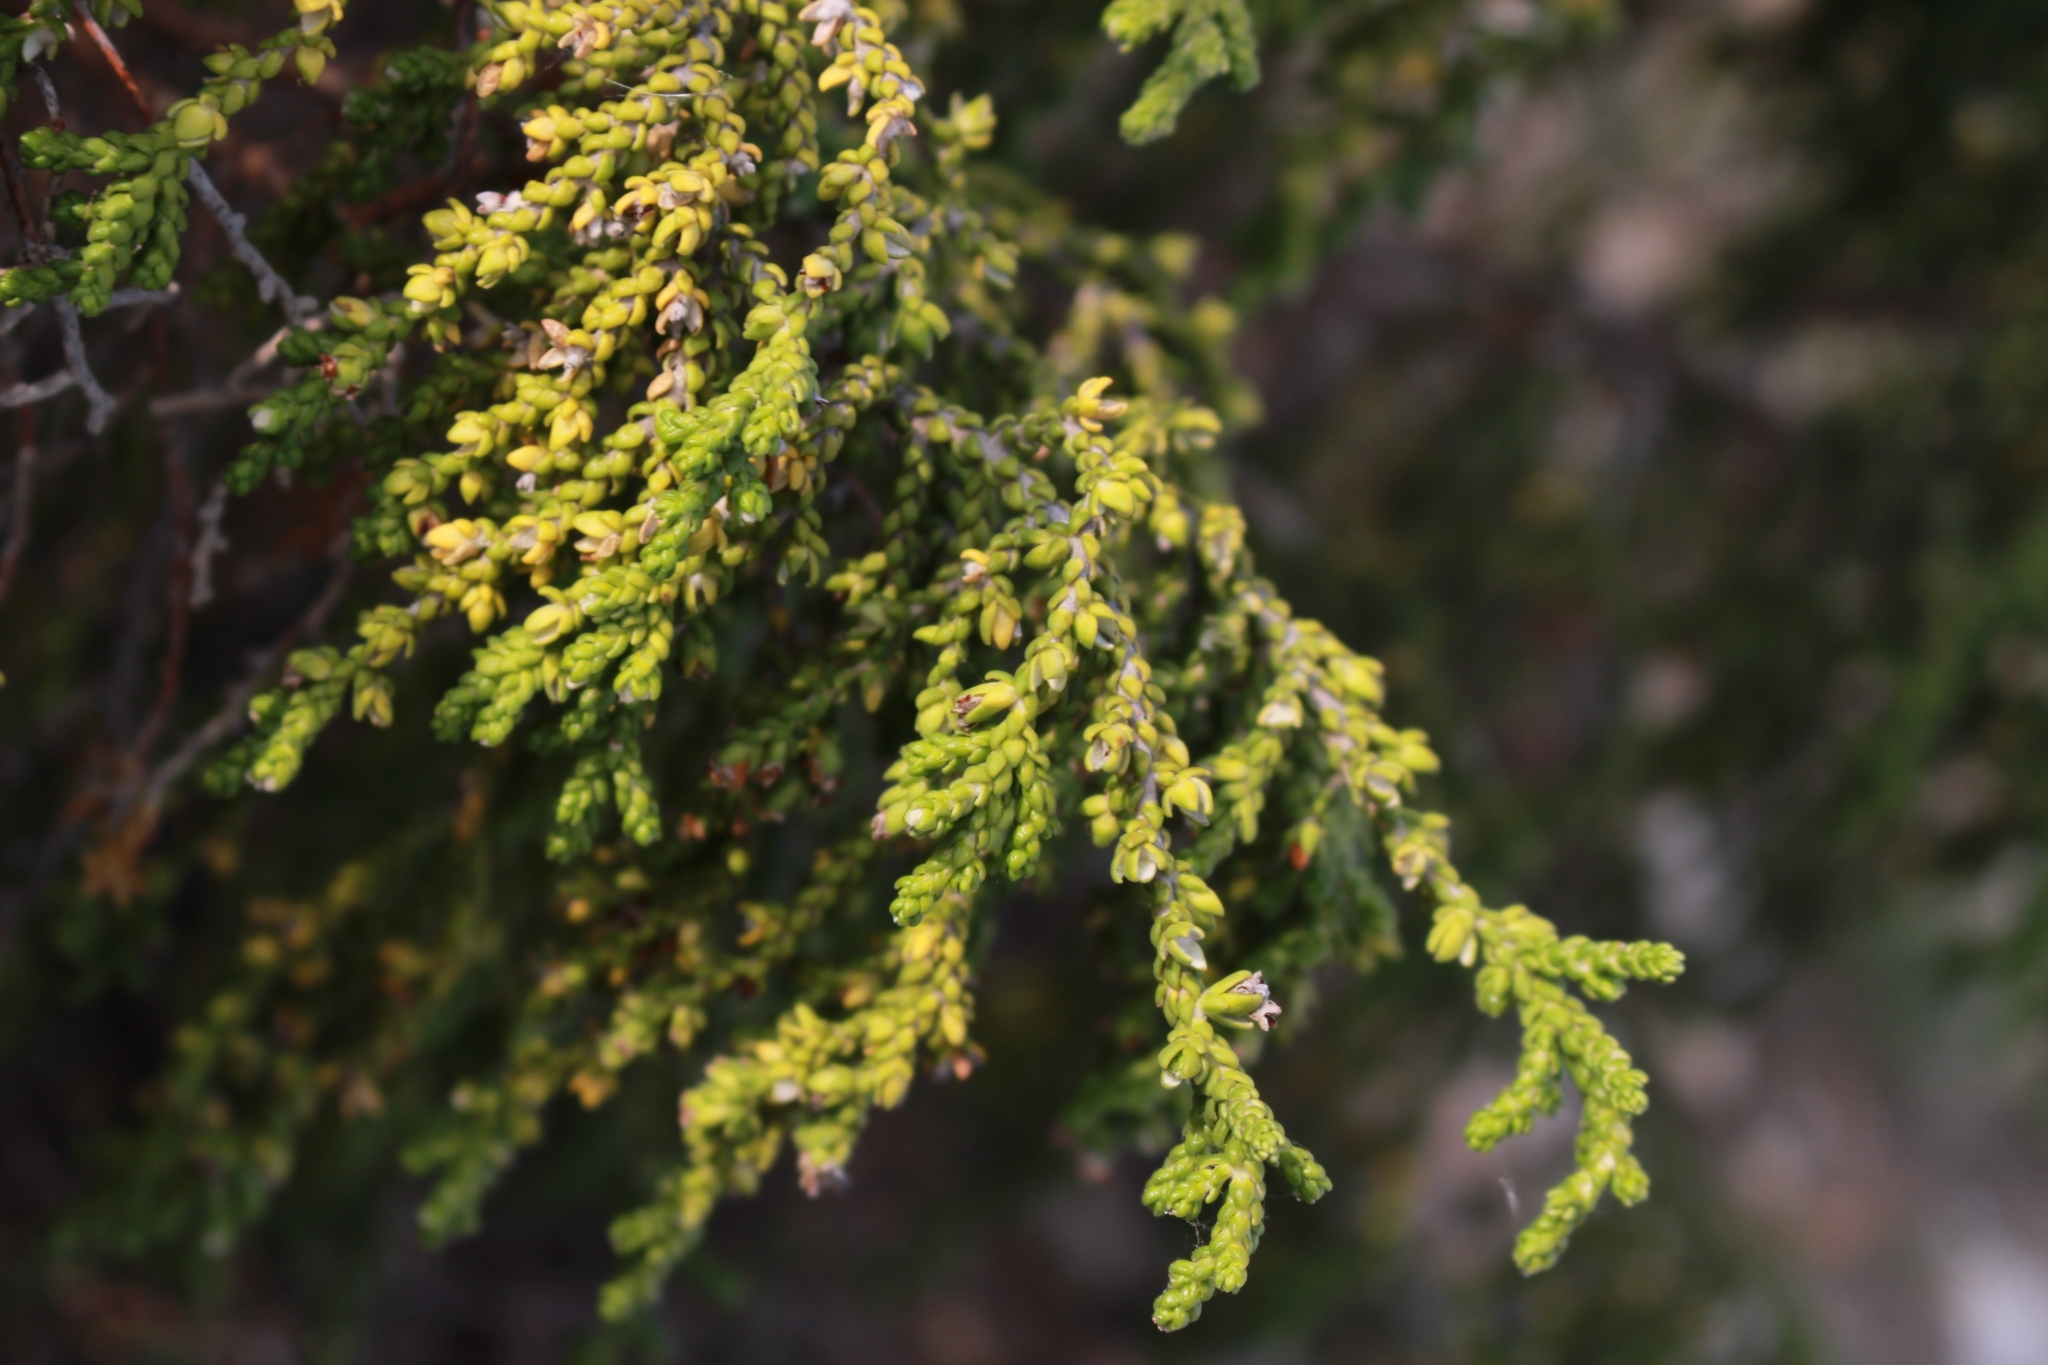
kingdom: Plantae
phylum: Tracheophyta
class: Magnoliopsida
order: Malvales
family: Thymelaeaceae
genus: Thymelaea
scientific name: Thymelaea hirsuta
